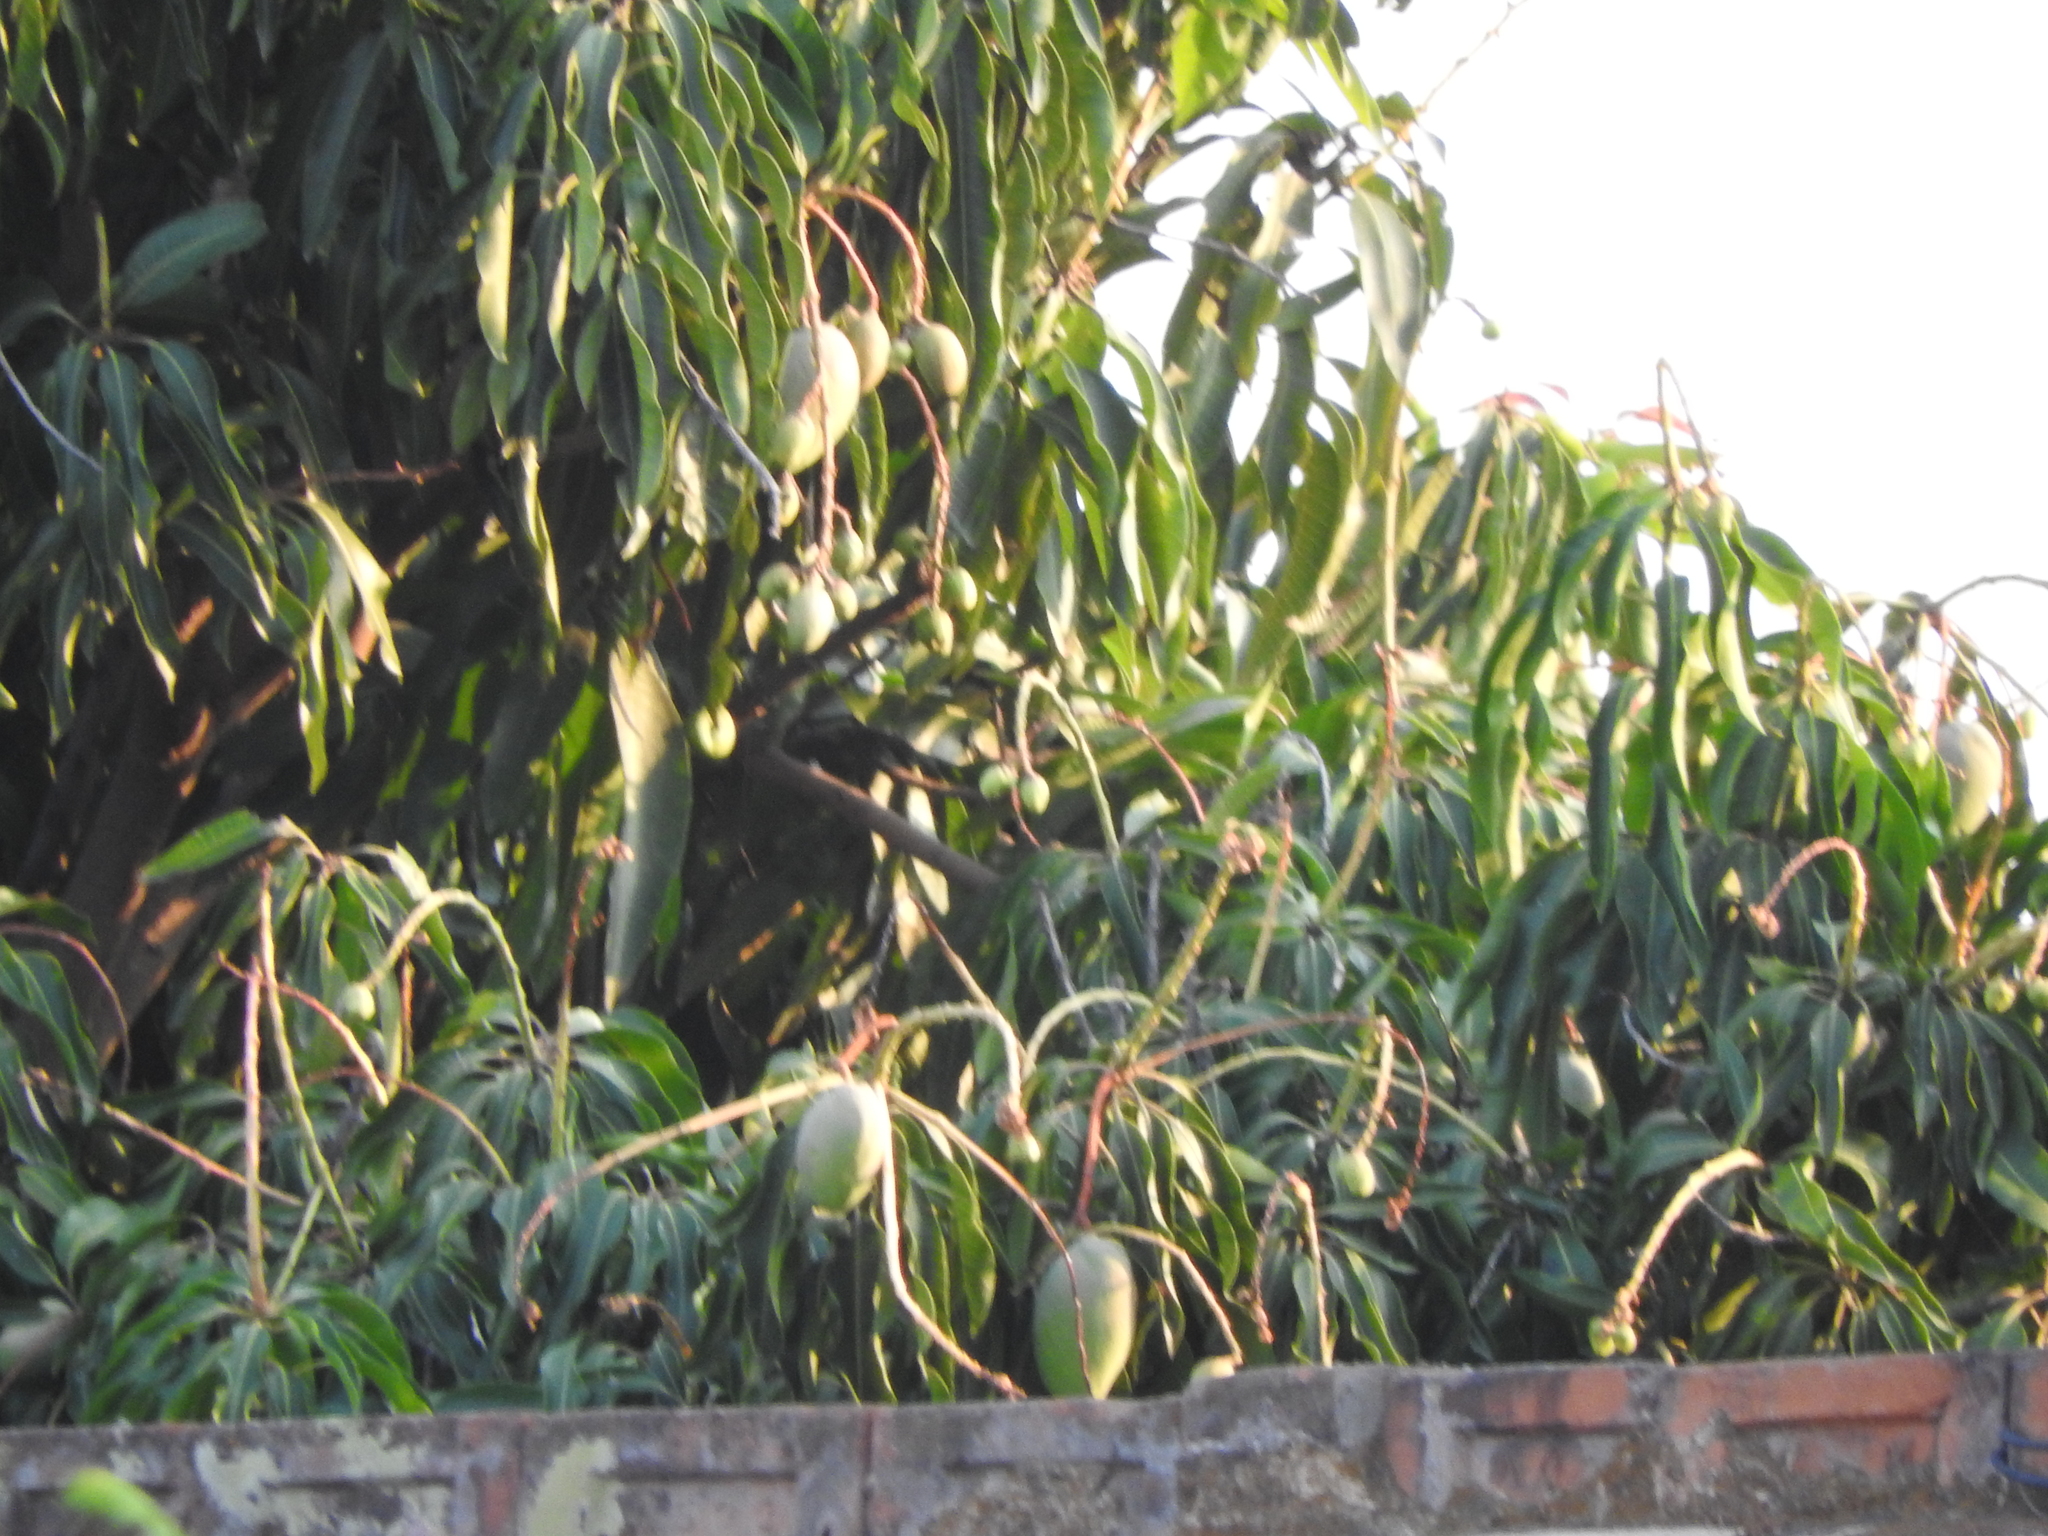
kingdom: Plantae
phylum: Tracheophyta
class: Magnoliopsida
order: Sapindales
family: Anacardiaceae
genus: Mangifera
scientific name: Mangifera indica
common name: Mango
